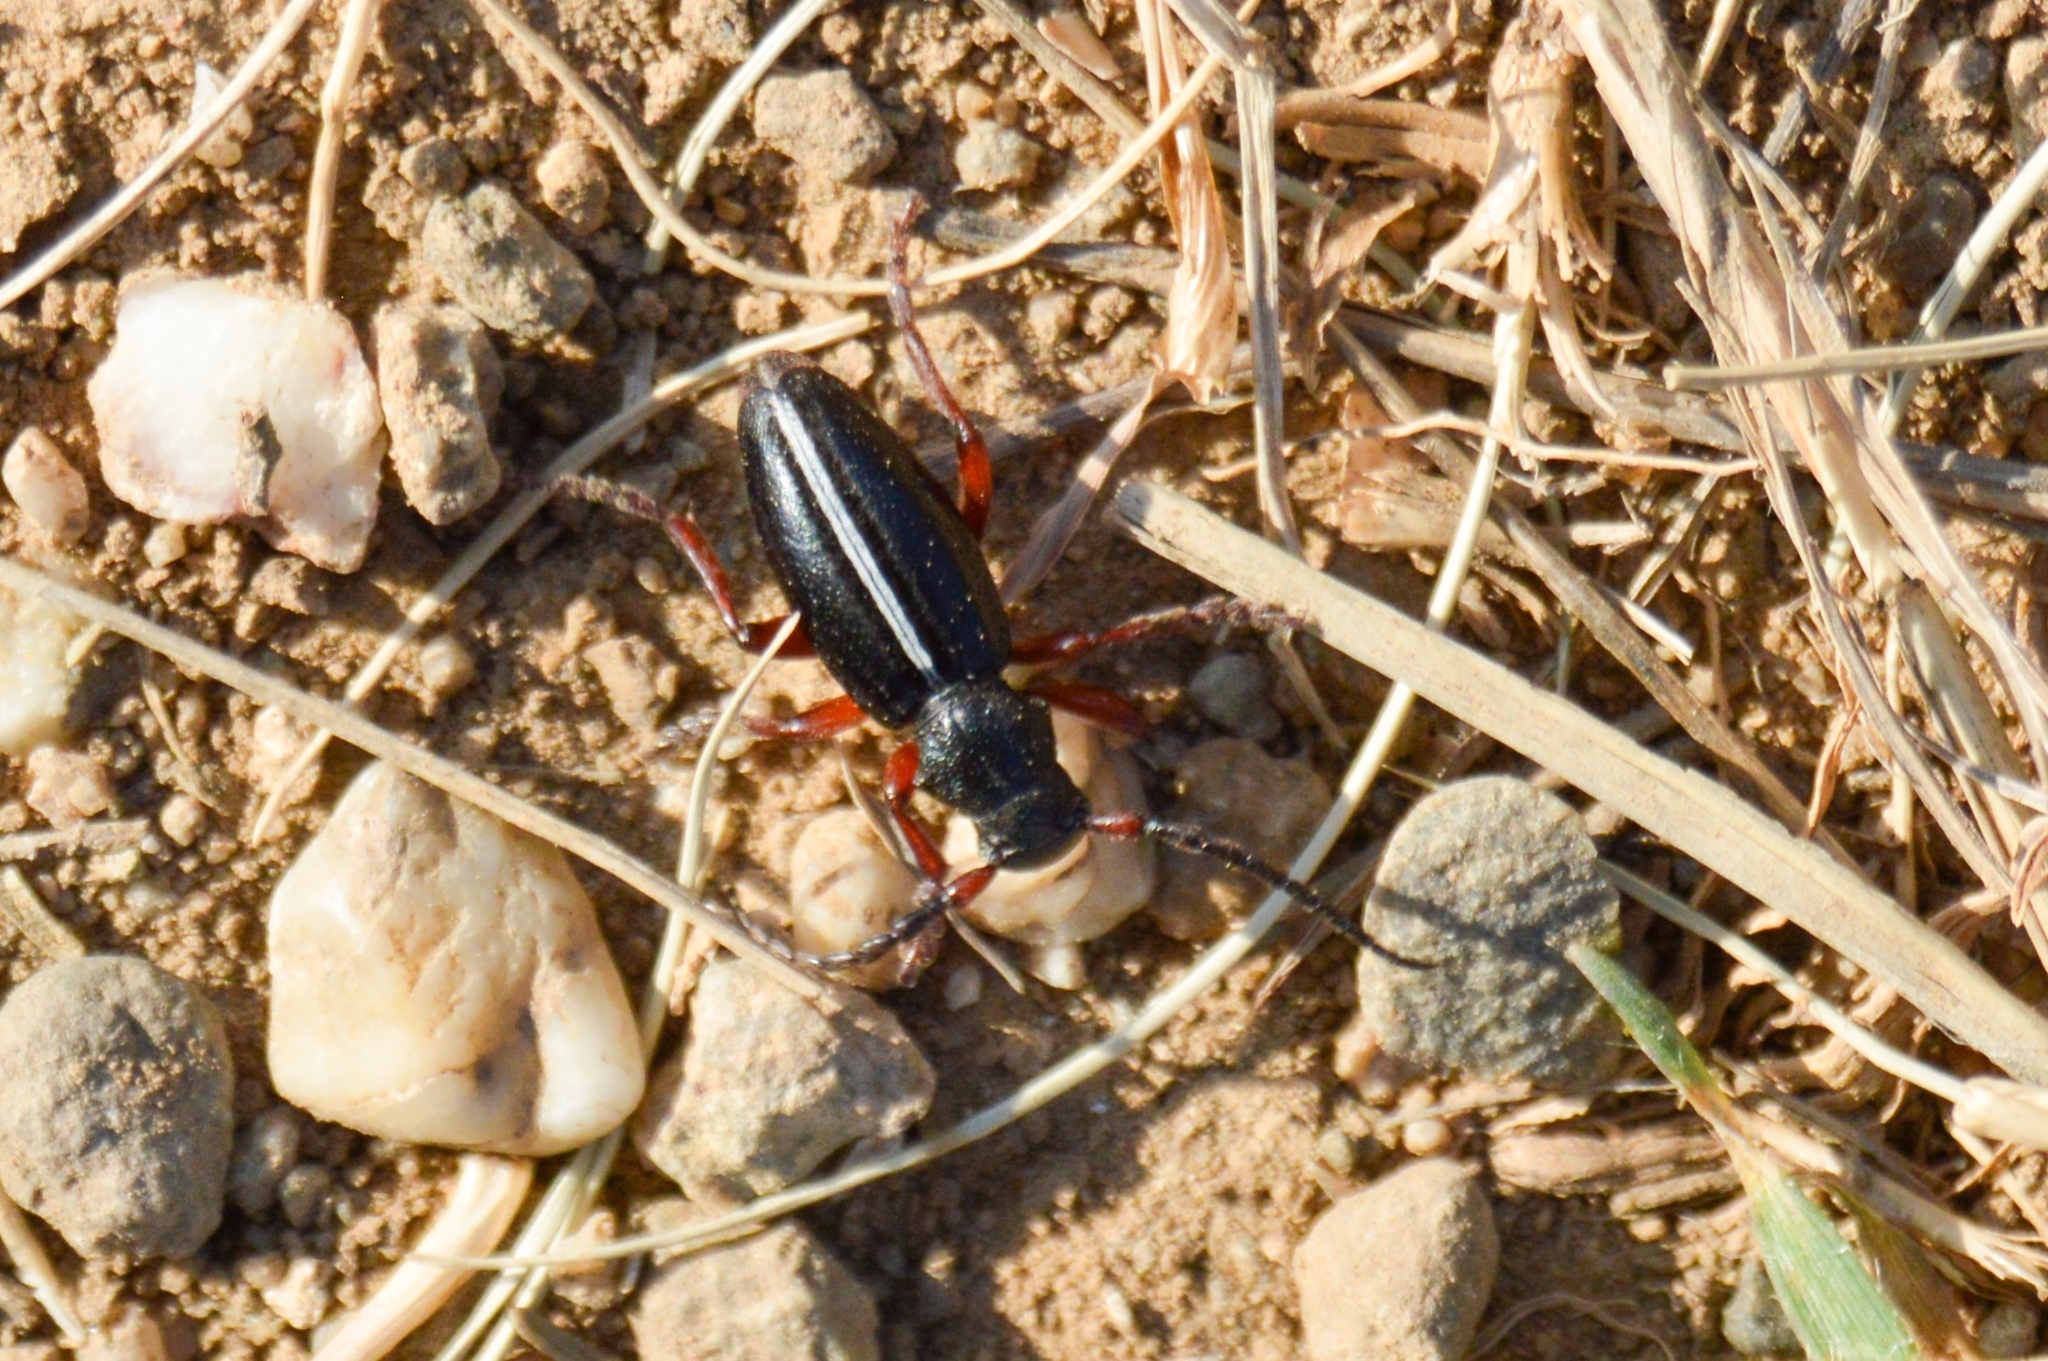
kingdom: Animalia
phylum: Arthropoda
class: Insecta
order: Coleoptera
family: Cerambycidae
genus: Dorcadion
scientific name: Dorcadion cinerarium
